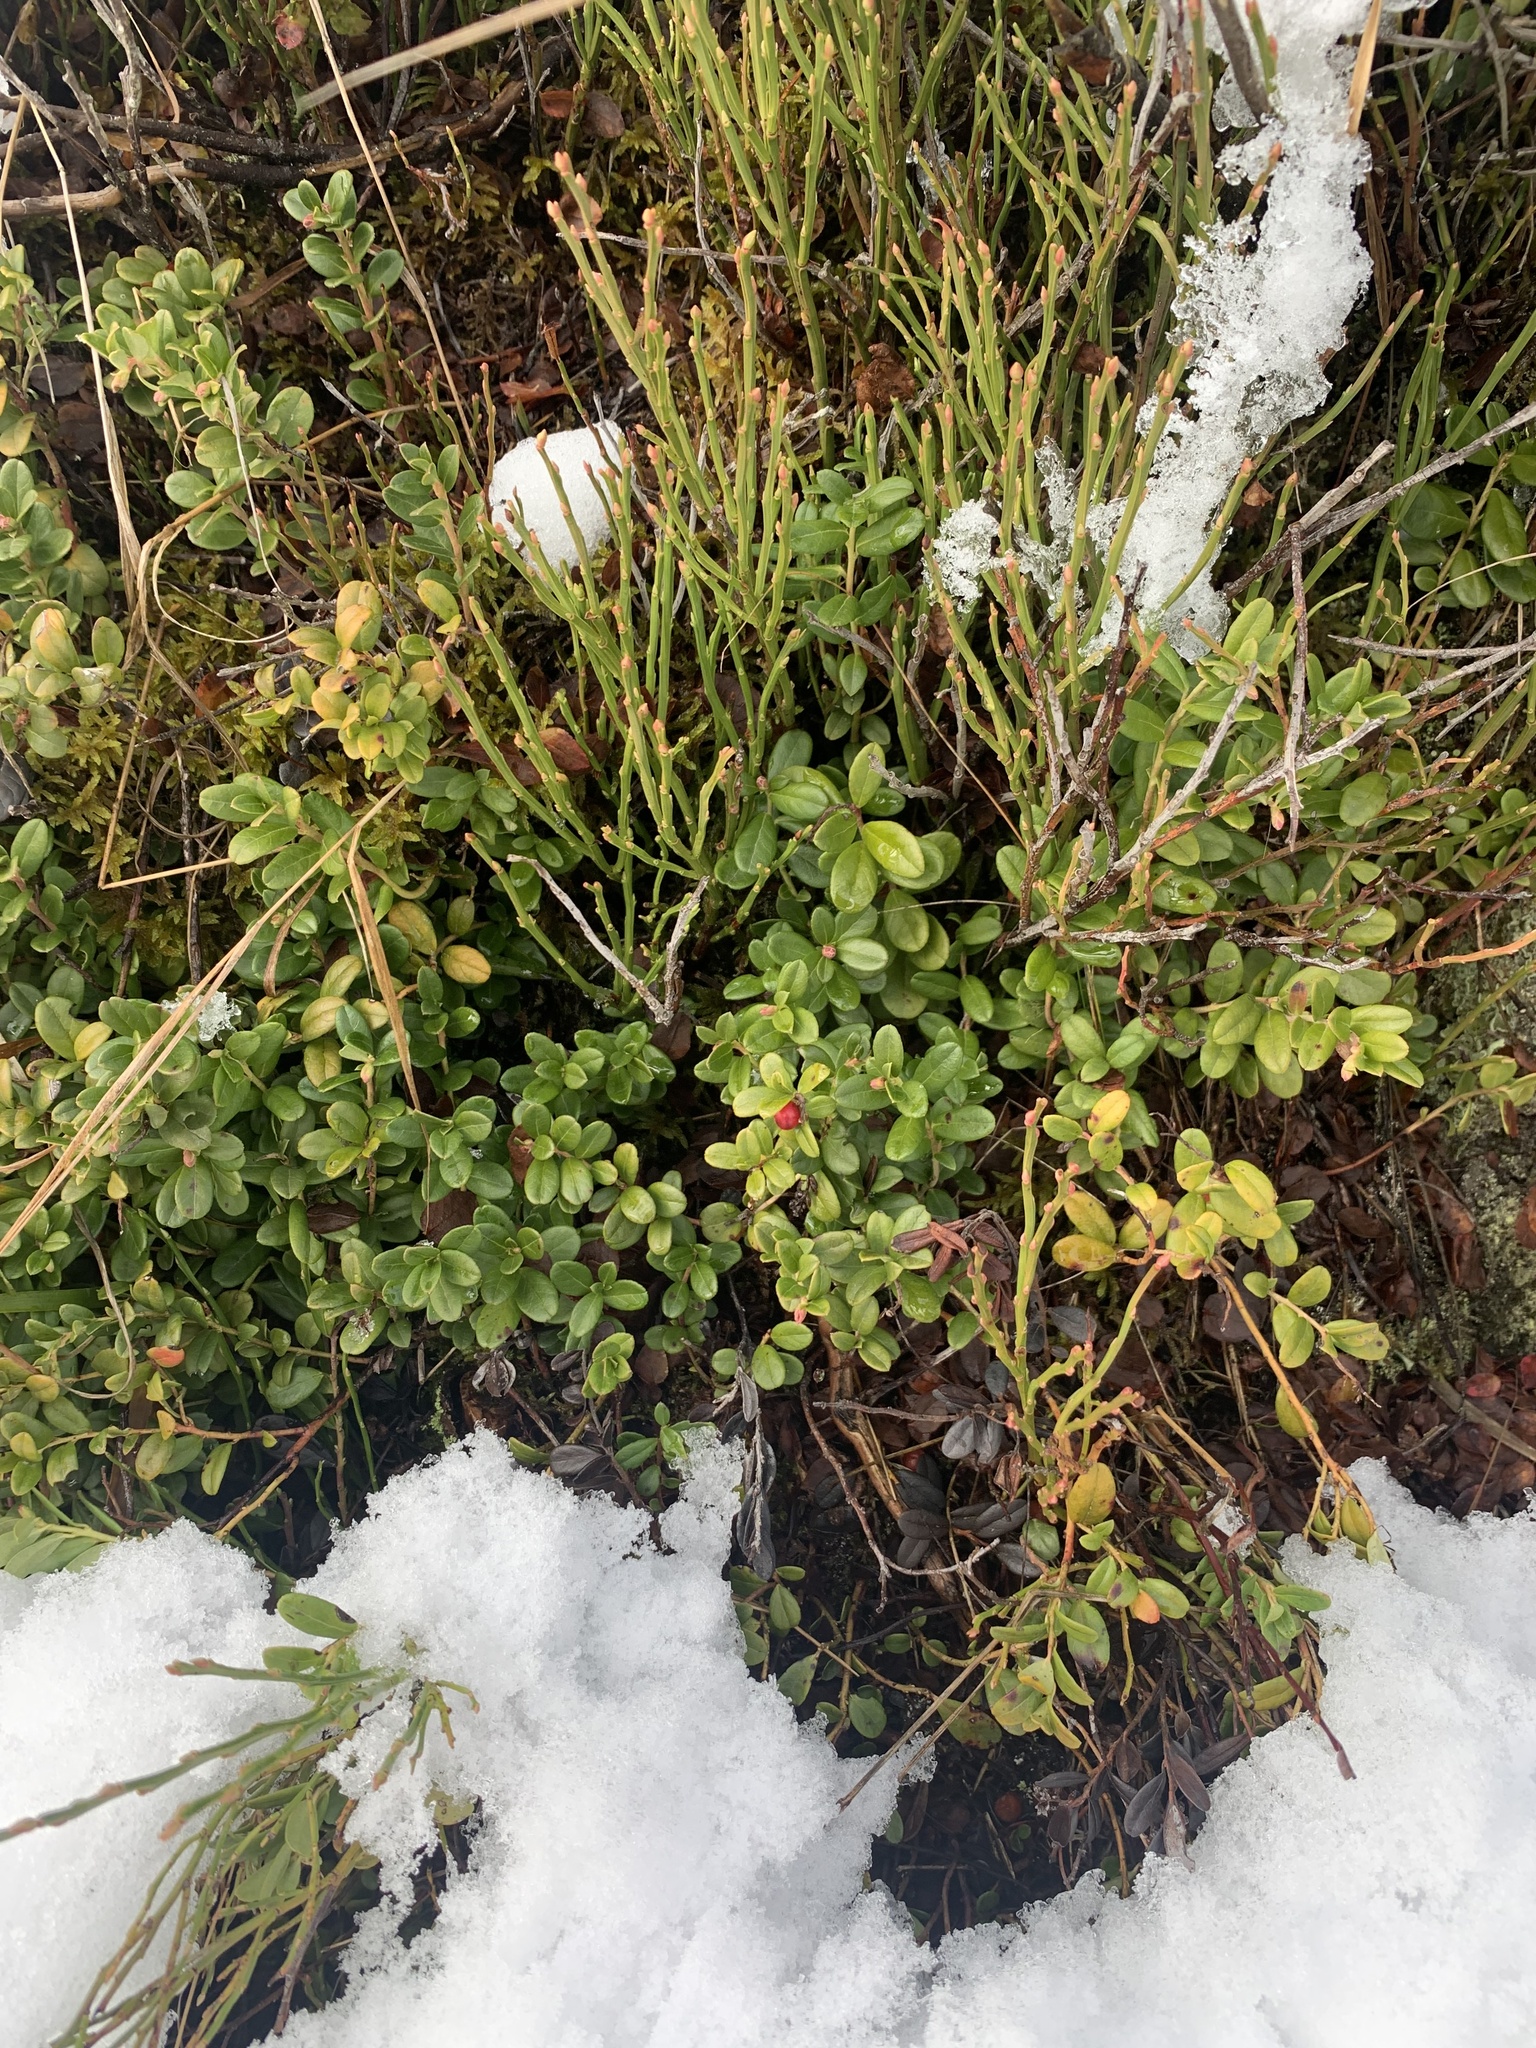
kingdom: Plantae
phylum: Tracheophyta
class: Magnoliopsida
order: Ericales
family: Ericaceae
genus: Vaccinium
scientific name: Vaccinium vitis-idaea
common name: Cowberry
